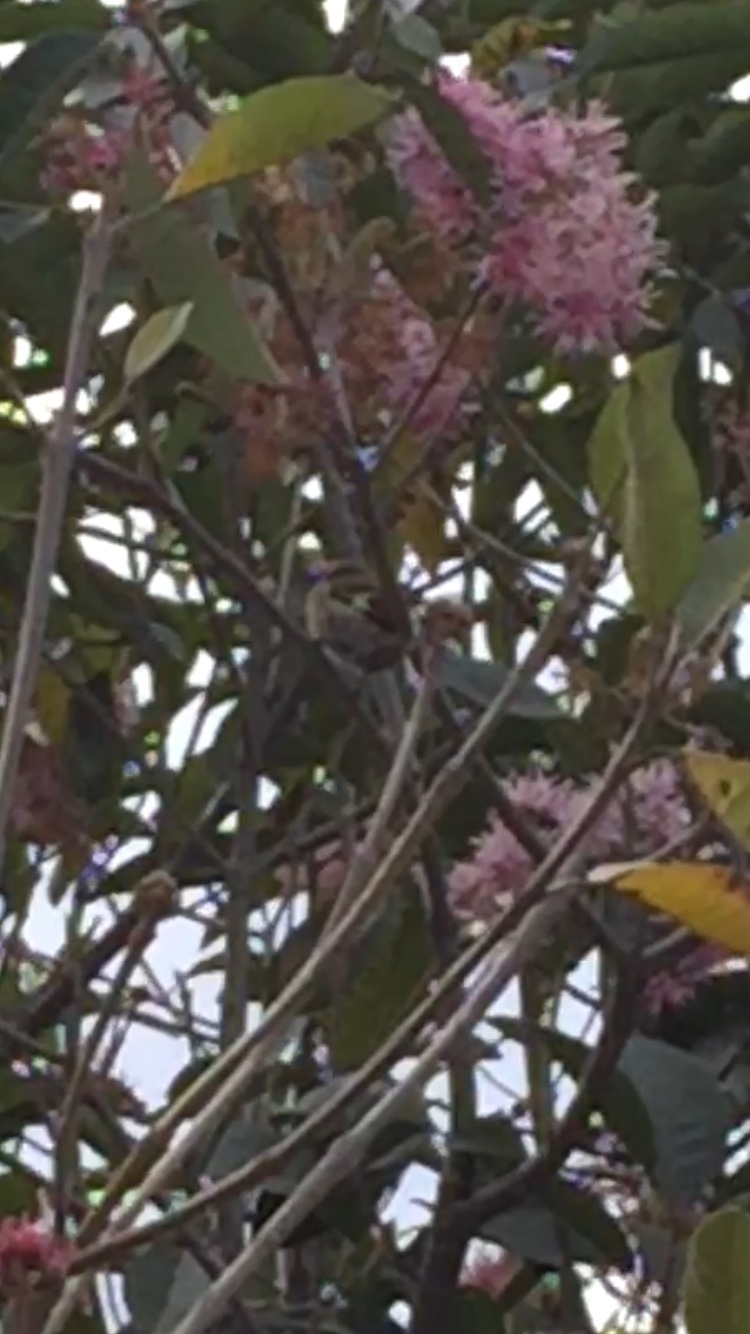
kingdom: Animalia
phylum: Chordata
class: Aves
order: Passeriformes
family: Fringillidae
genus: Spinus
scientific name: Spinus magellanicus
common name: Hooded siskin
